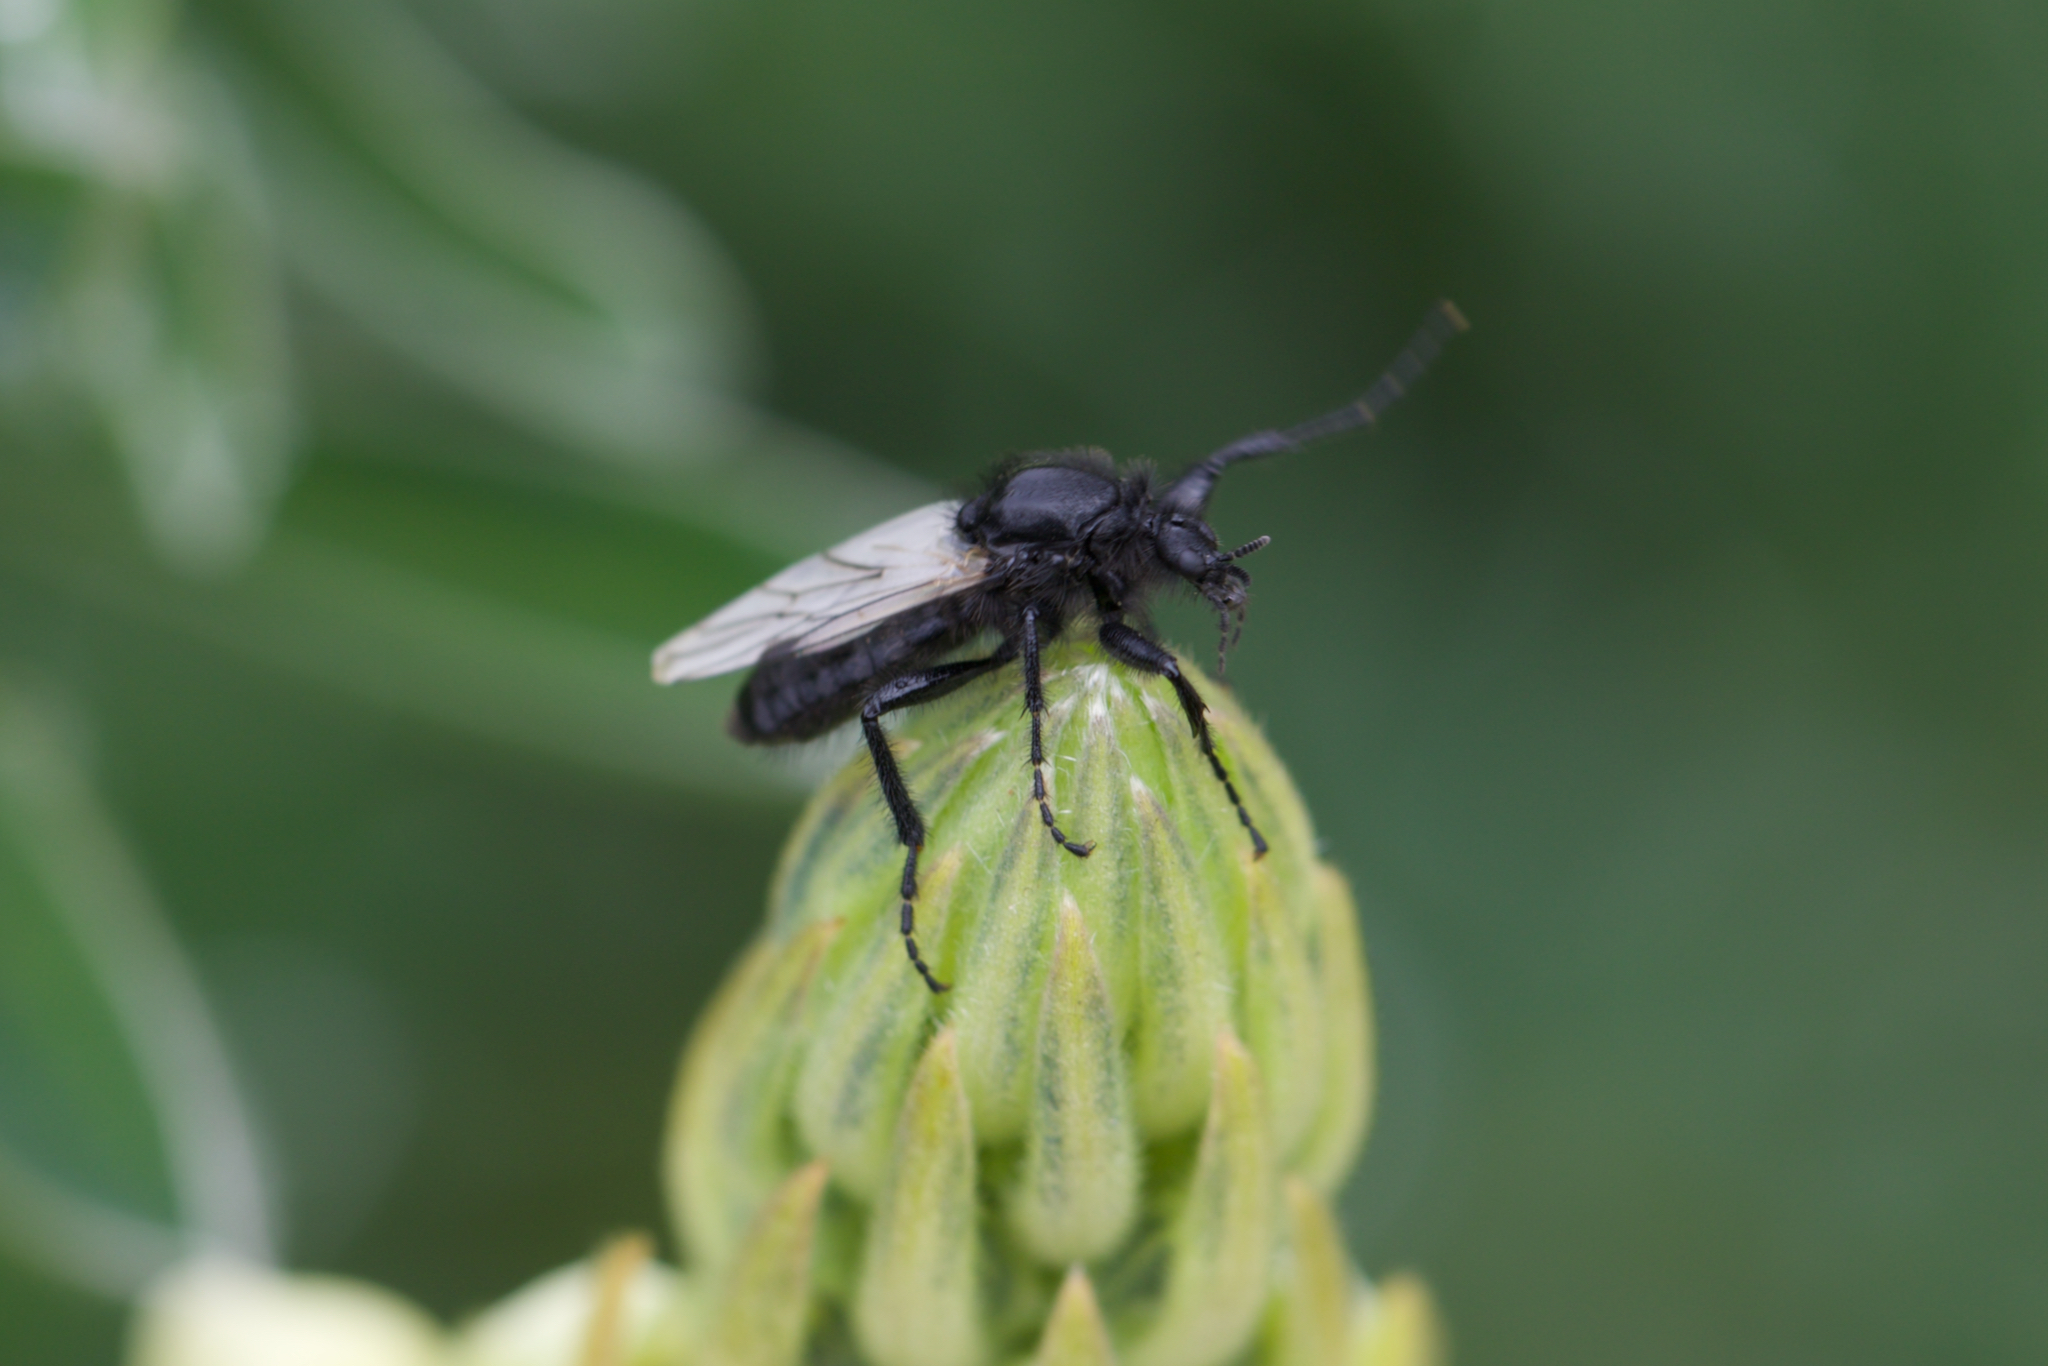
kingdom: Animalia
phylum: Arthropoda
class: Insecta
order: Diptera
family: Bibionidae
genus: Bibio
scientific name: Bibio necotus
